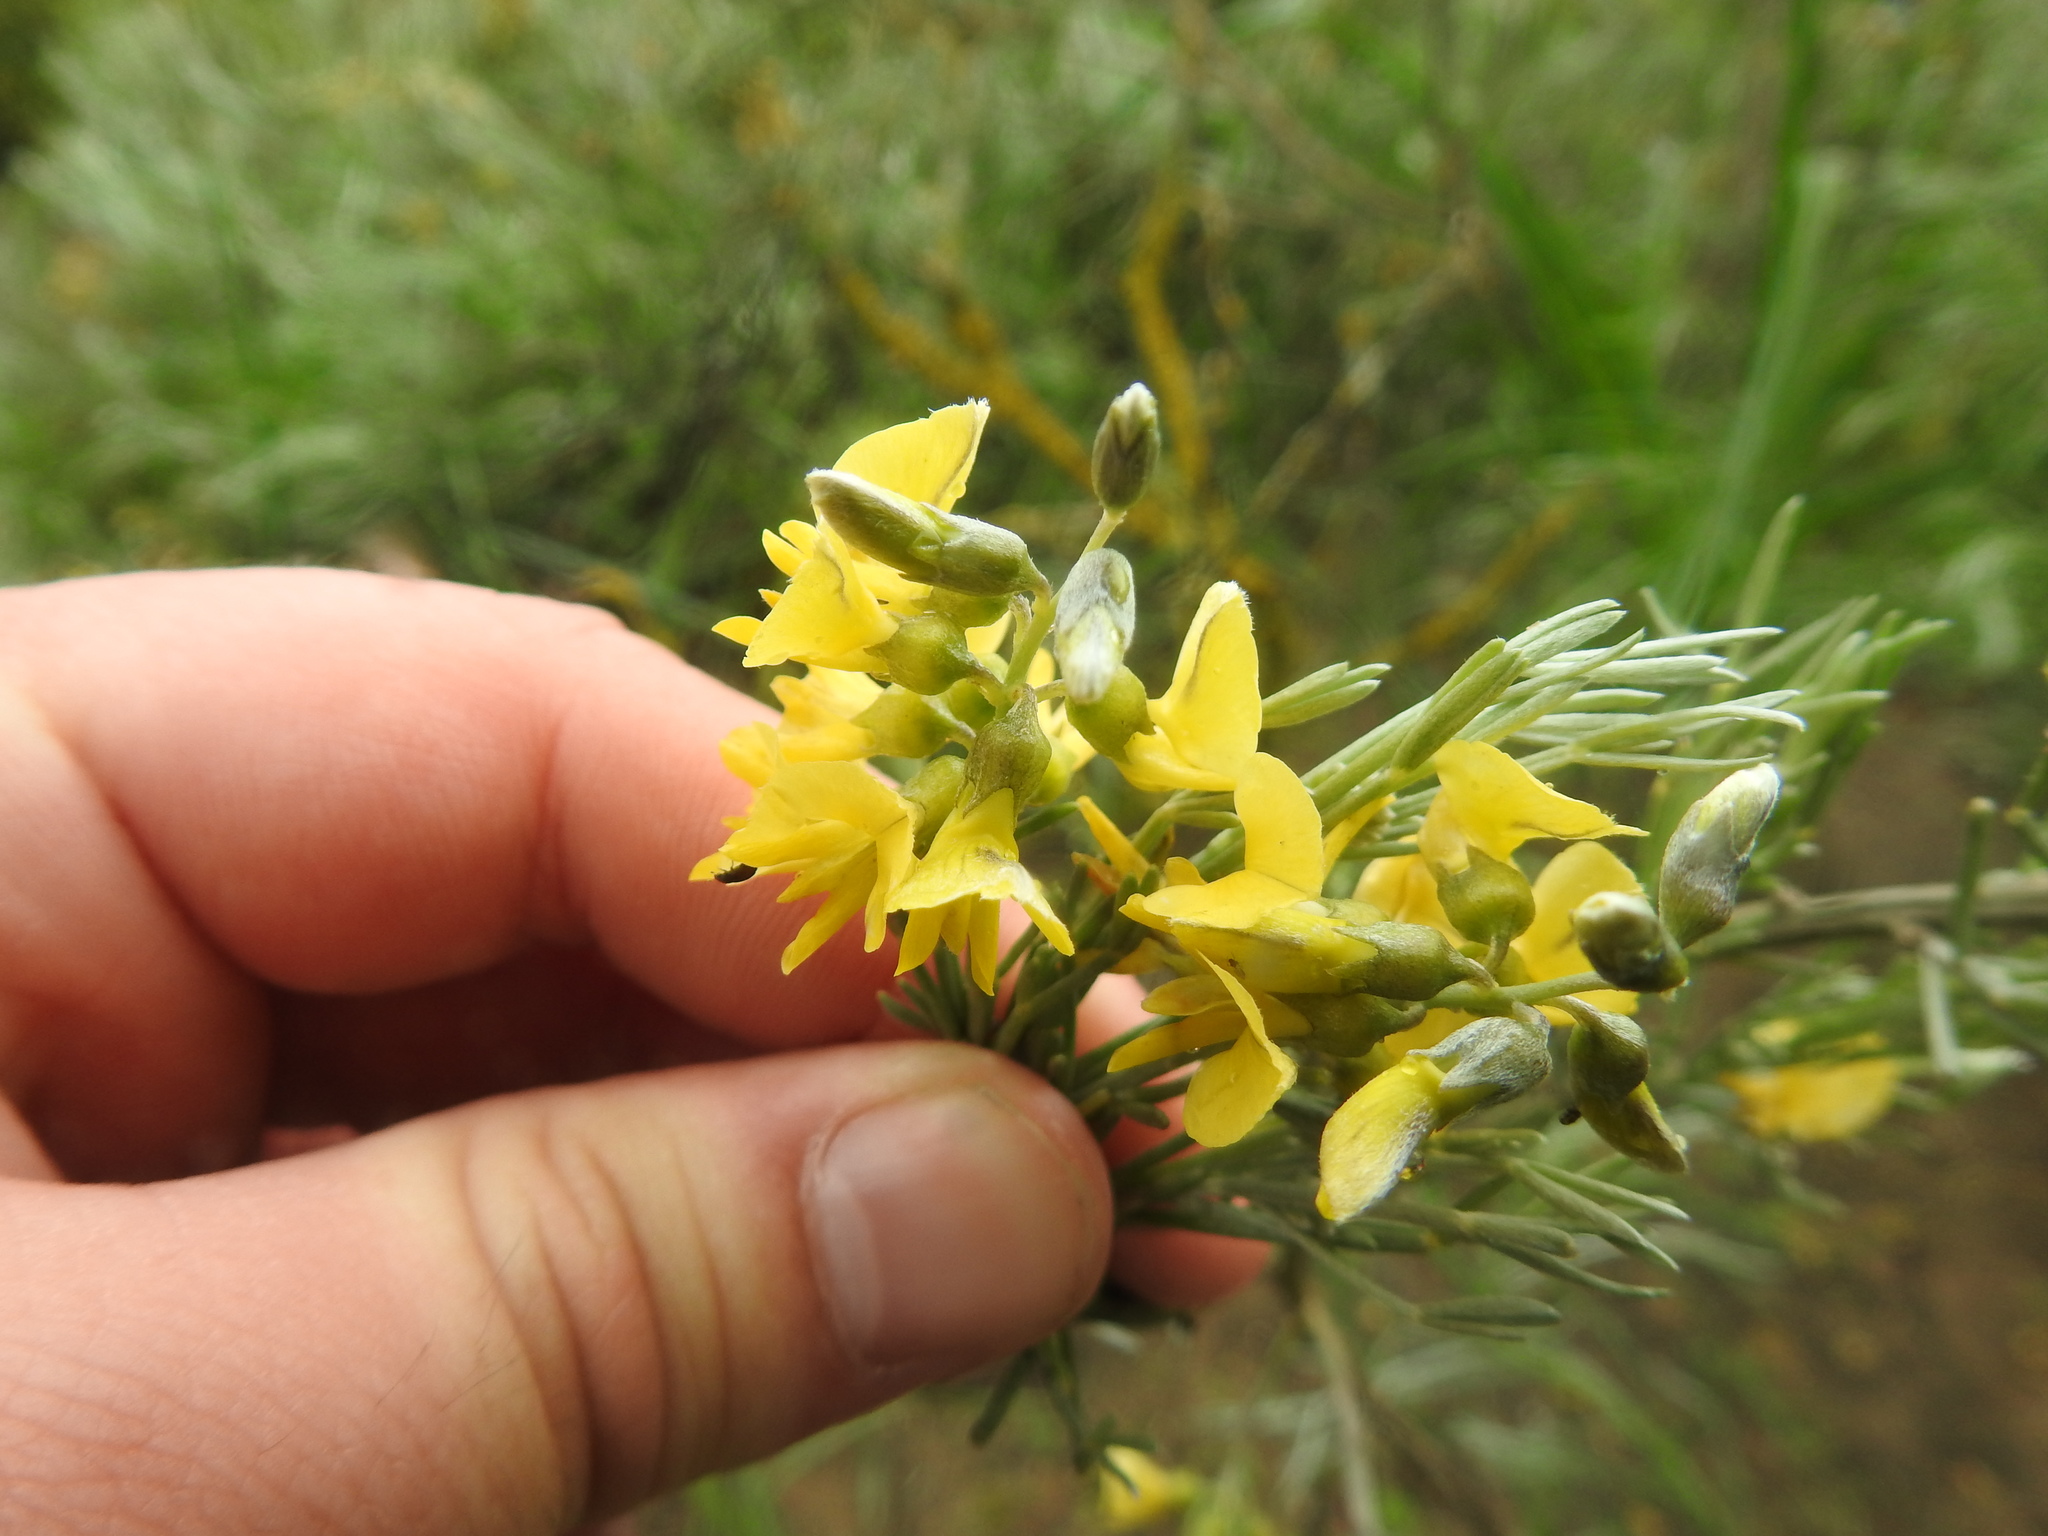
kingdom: Plantae
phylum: Tracheophyta
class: Magnoliopsida
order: Fabales
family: Fabaceae
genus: Calobota
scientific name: Calobota sericea
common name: Silver-pea
